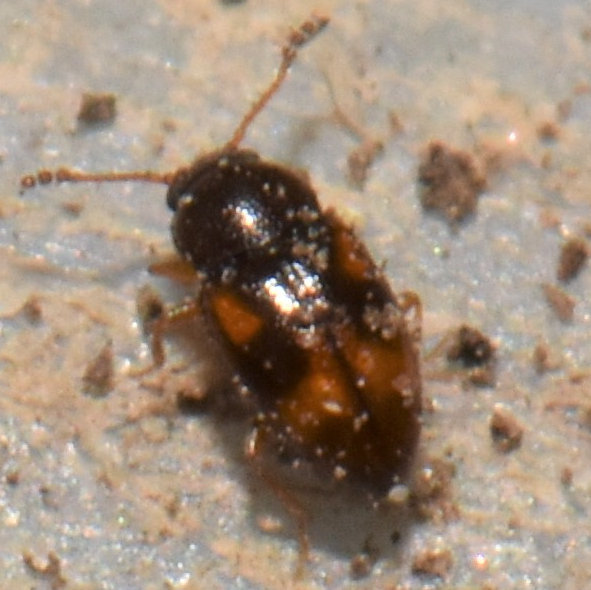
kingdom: Animalia
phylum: Arthropoda
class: Insecta
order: Coleoptera
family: Cryptophagidae
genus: Atomaria
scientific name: Atomaria ephippiata
